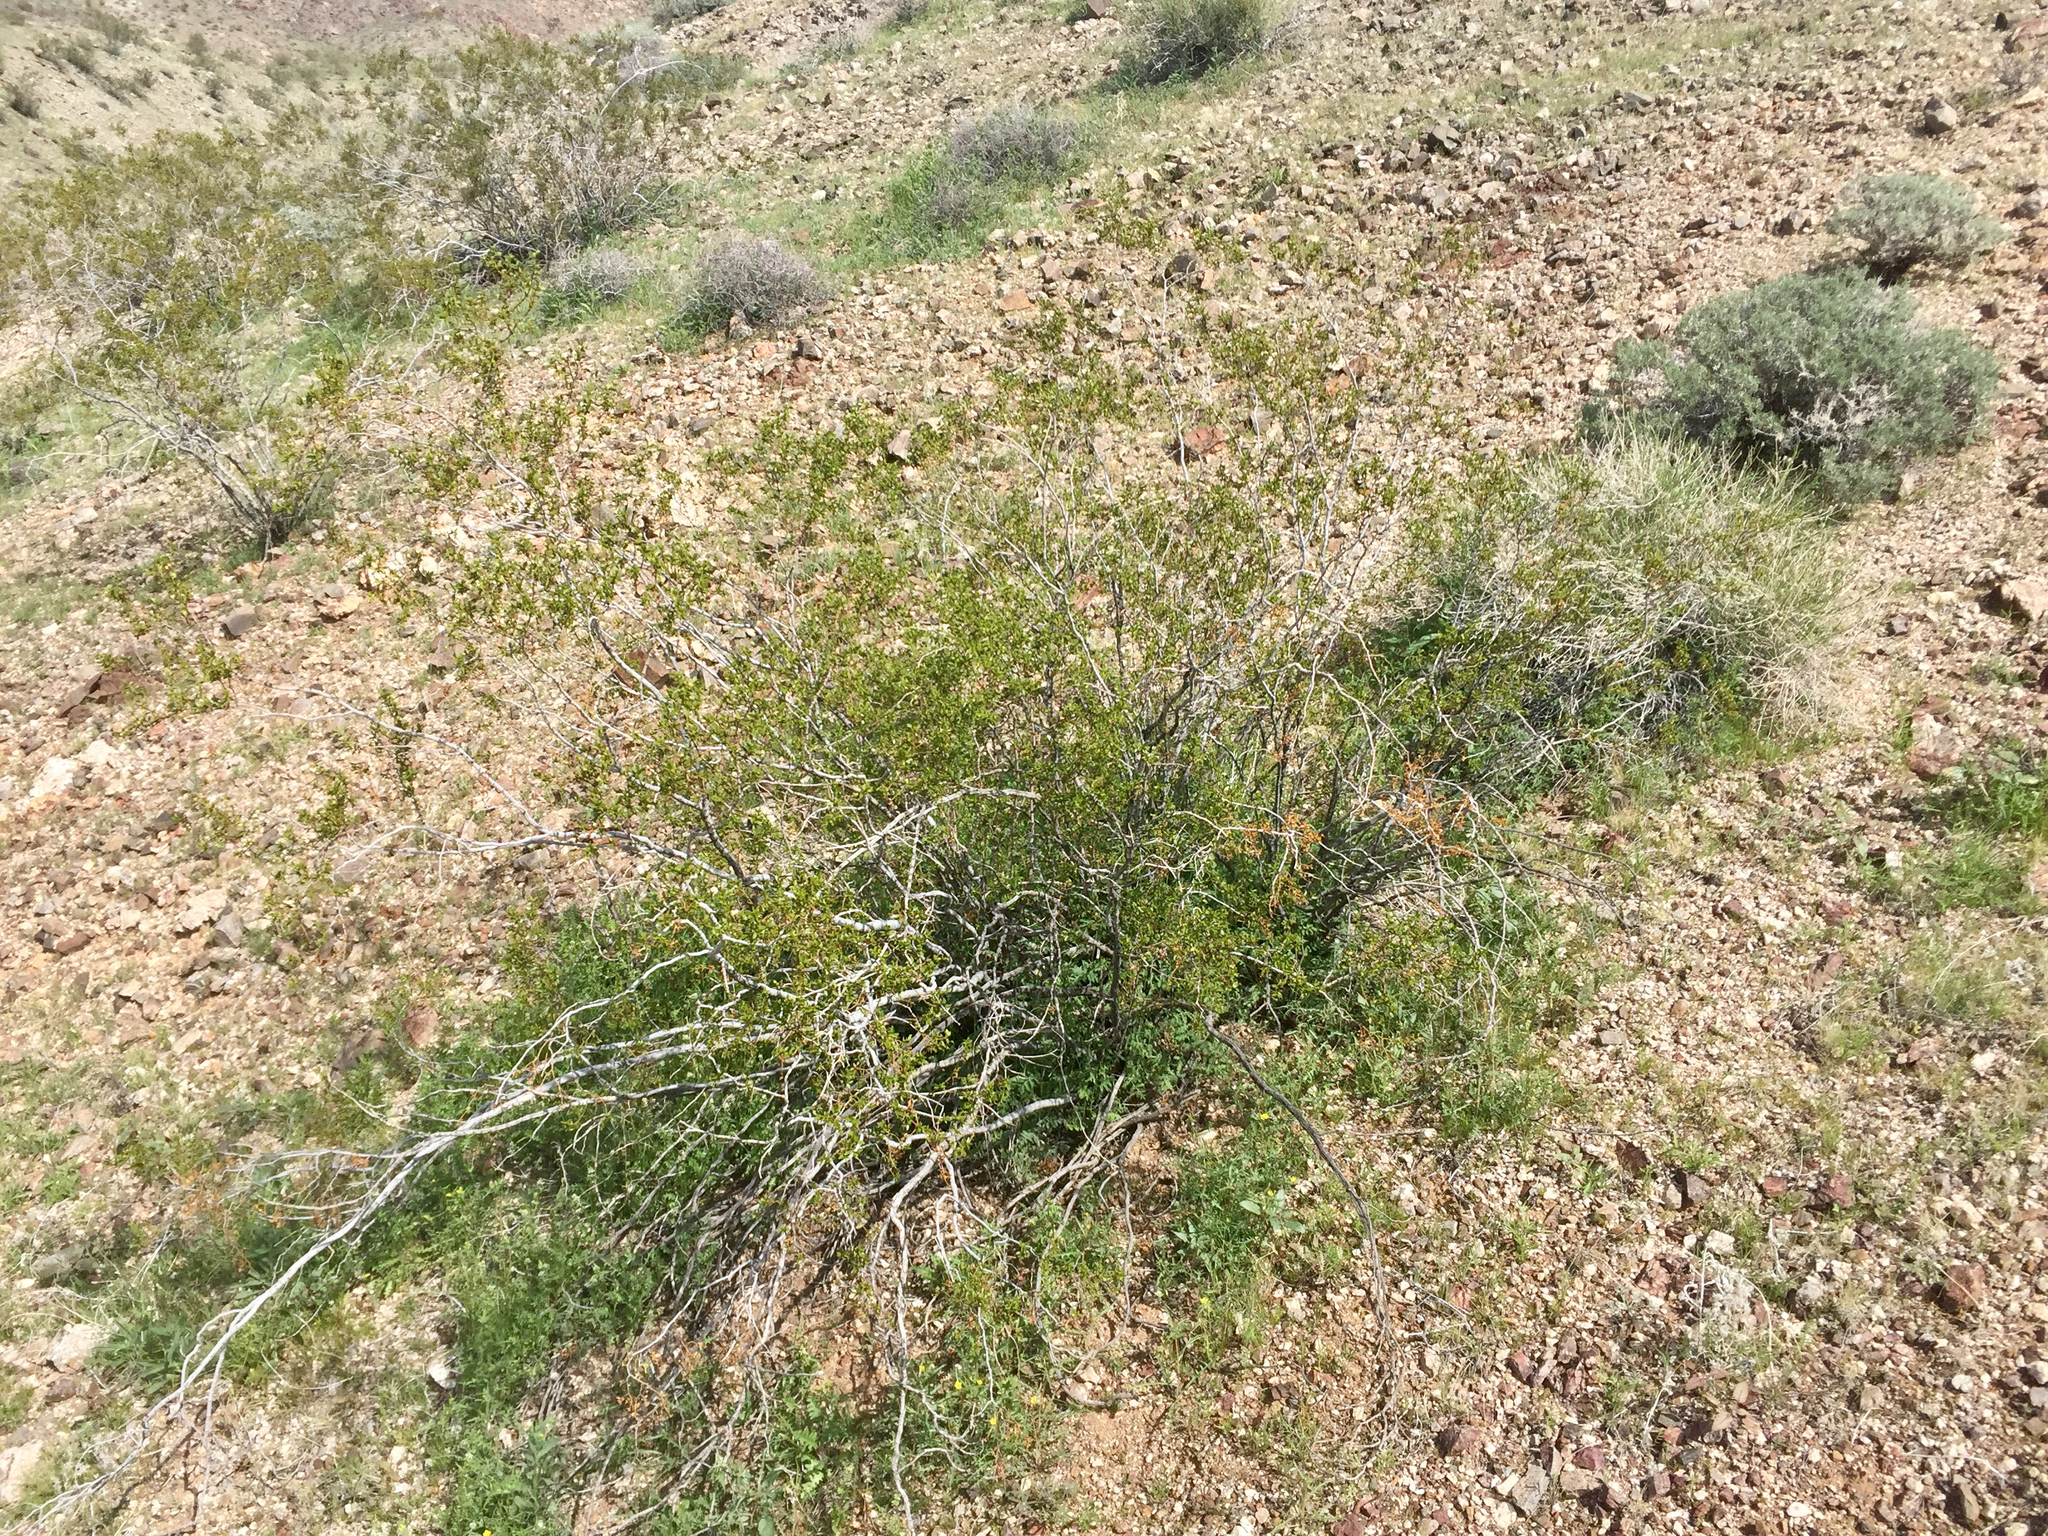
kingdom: Plantae
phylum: Tracheophyta
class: Magnoliopsida
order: Zygophyllales
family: Zygophyllaceae
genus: Larrea
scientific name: Larrea tridentata
